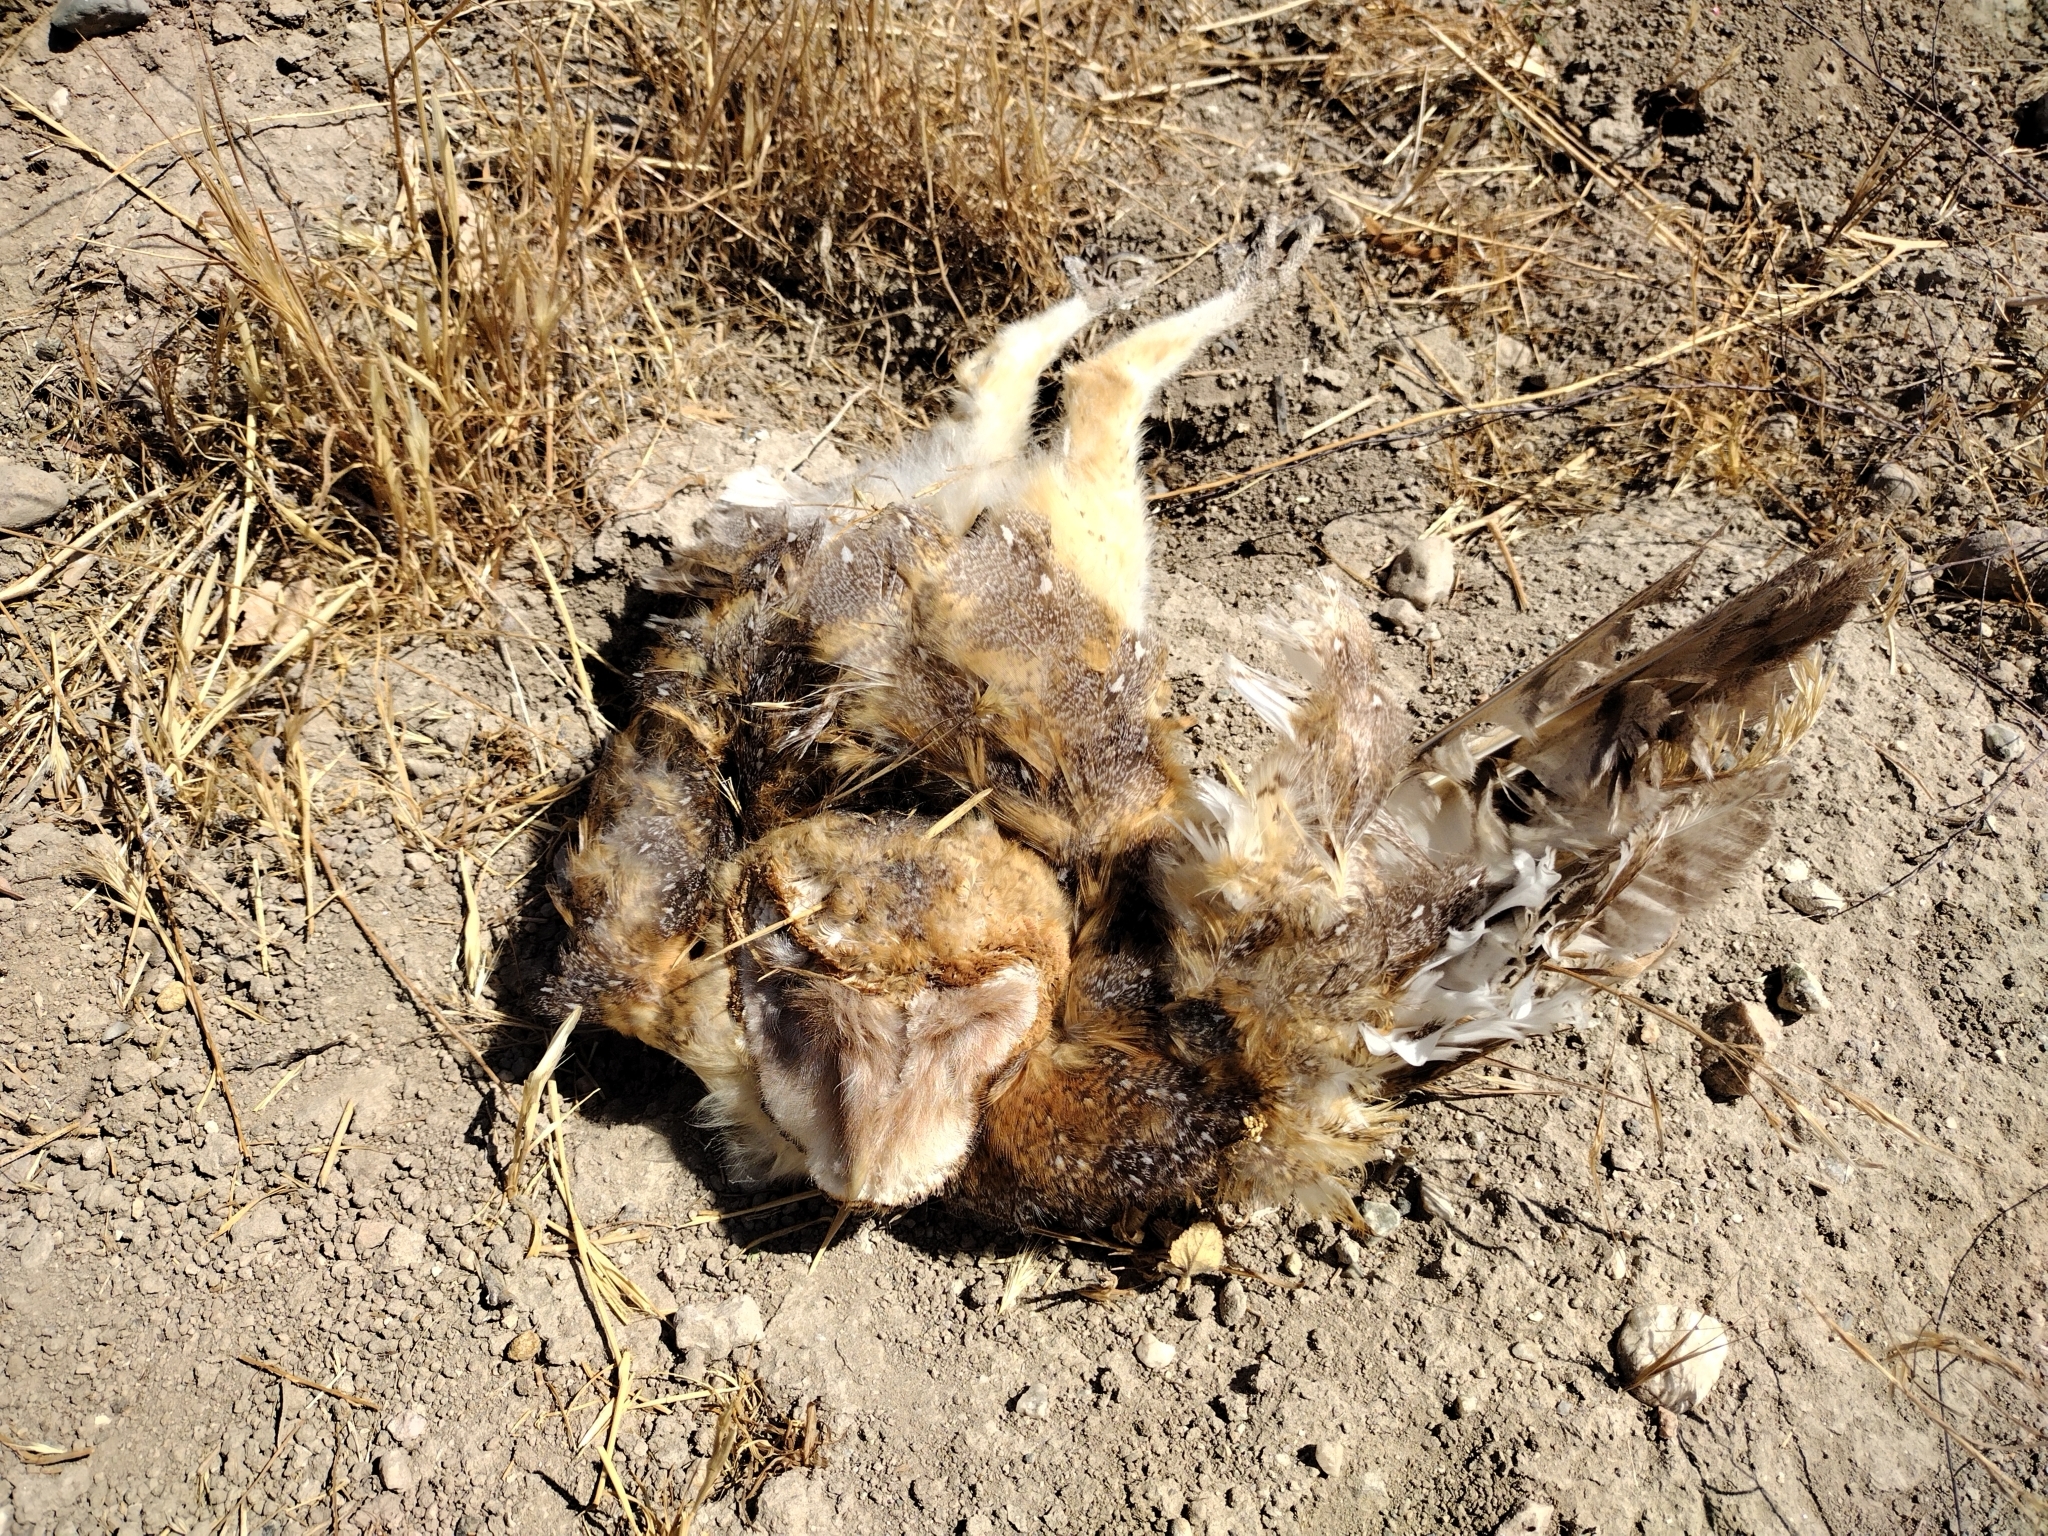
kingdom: Animalia
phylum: Chordata
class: Aves
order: Strigiformes
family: Tytonidae
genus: Tyto
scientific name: Tyto alba
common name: Barn owl
